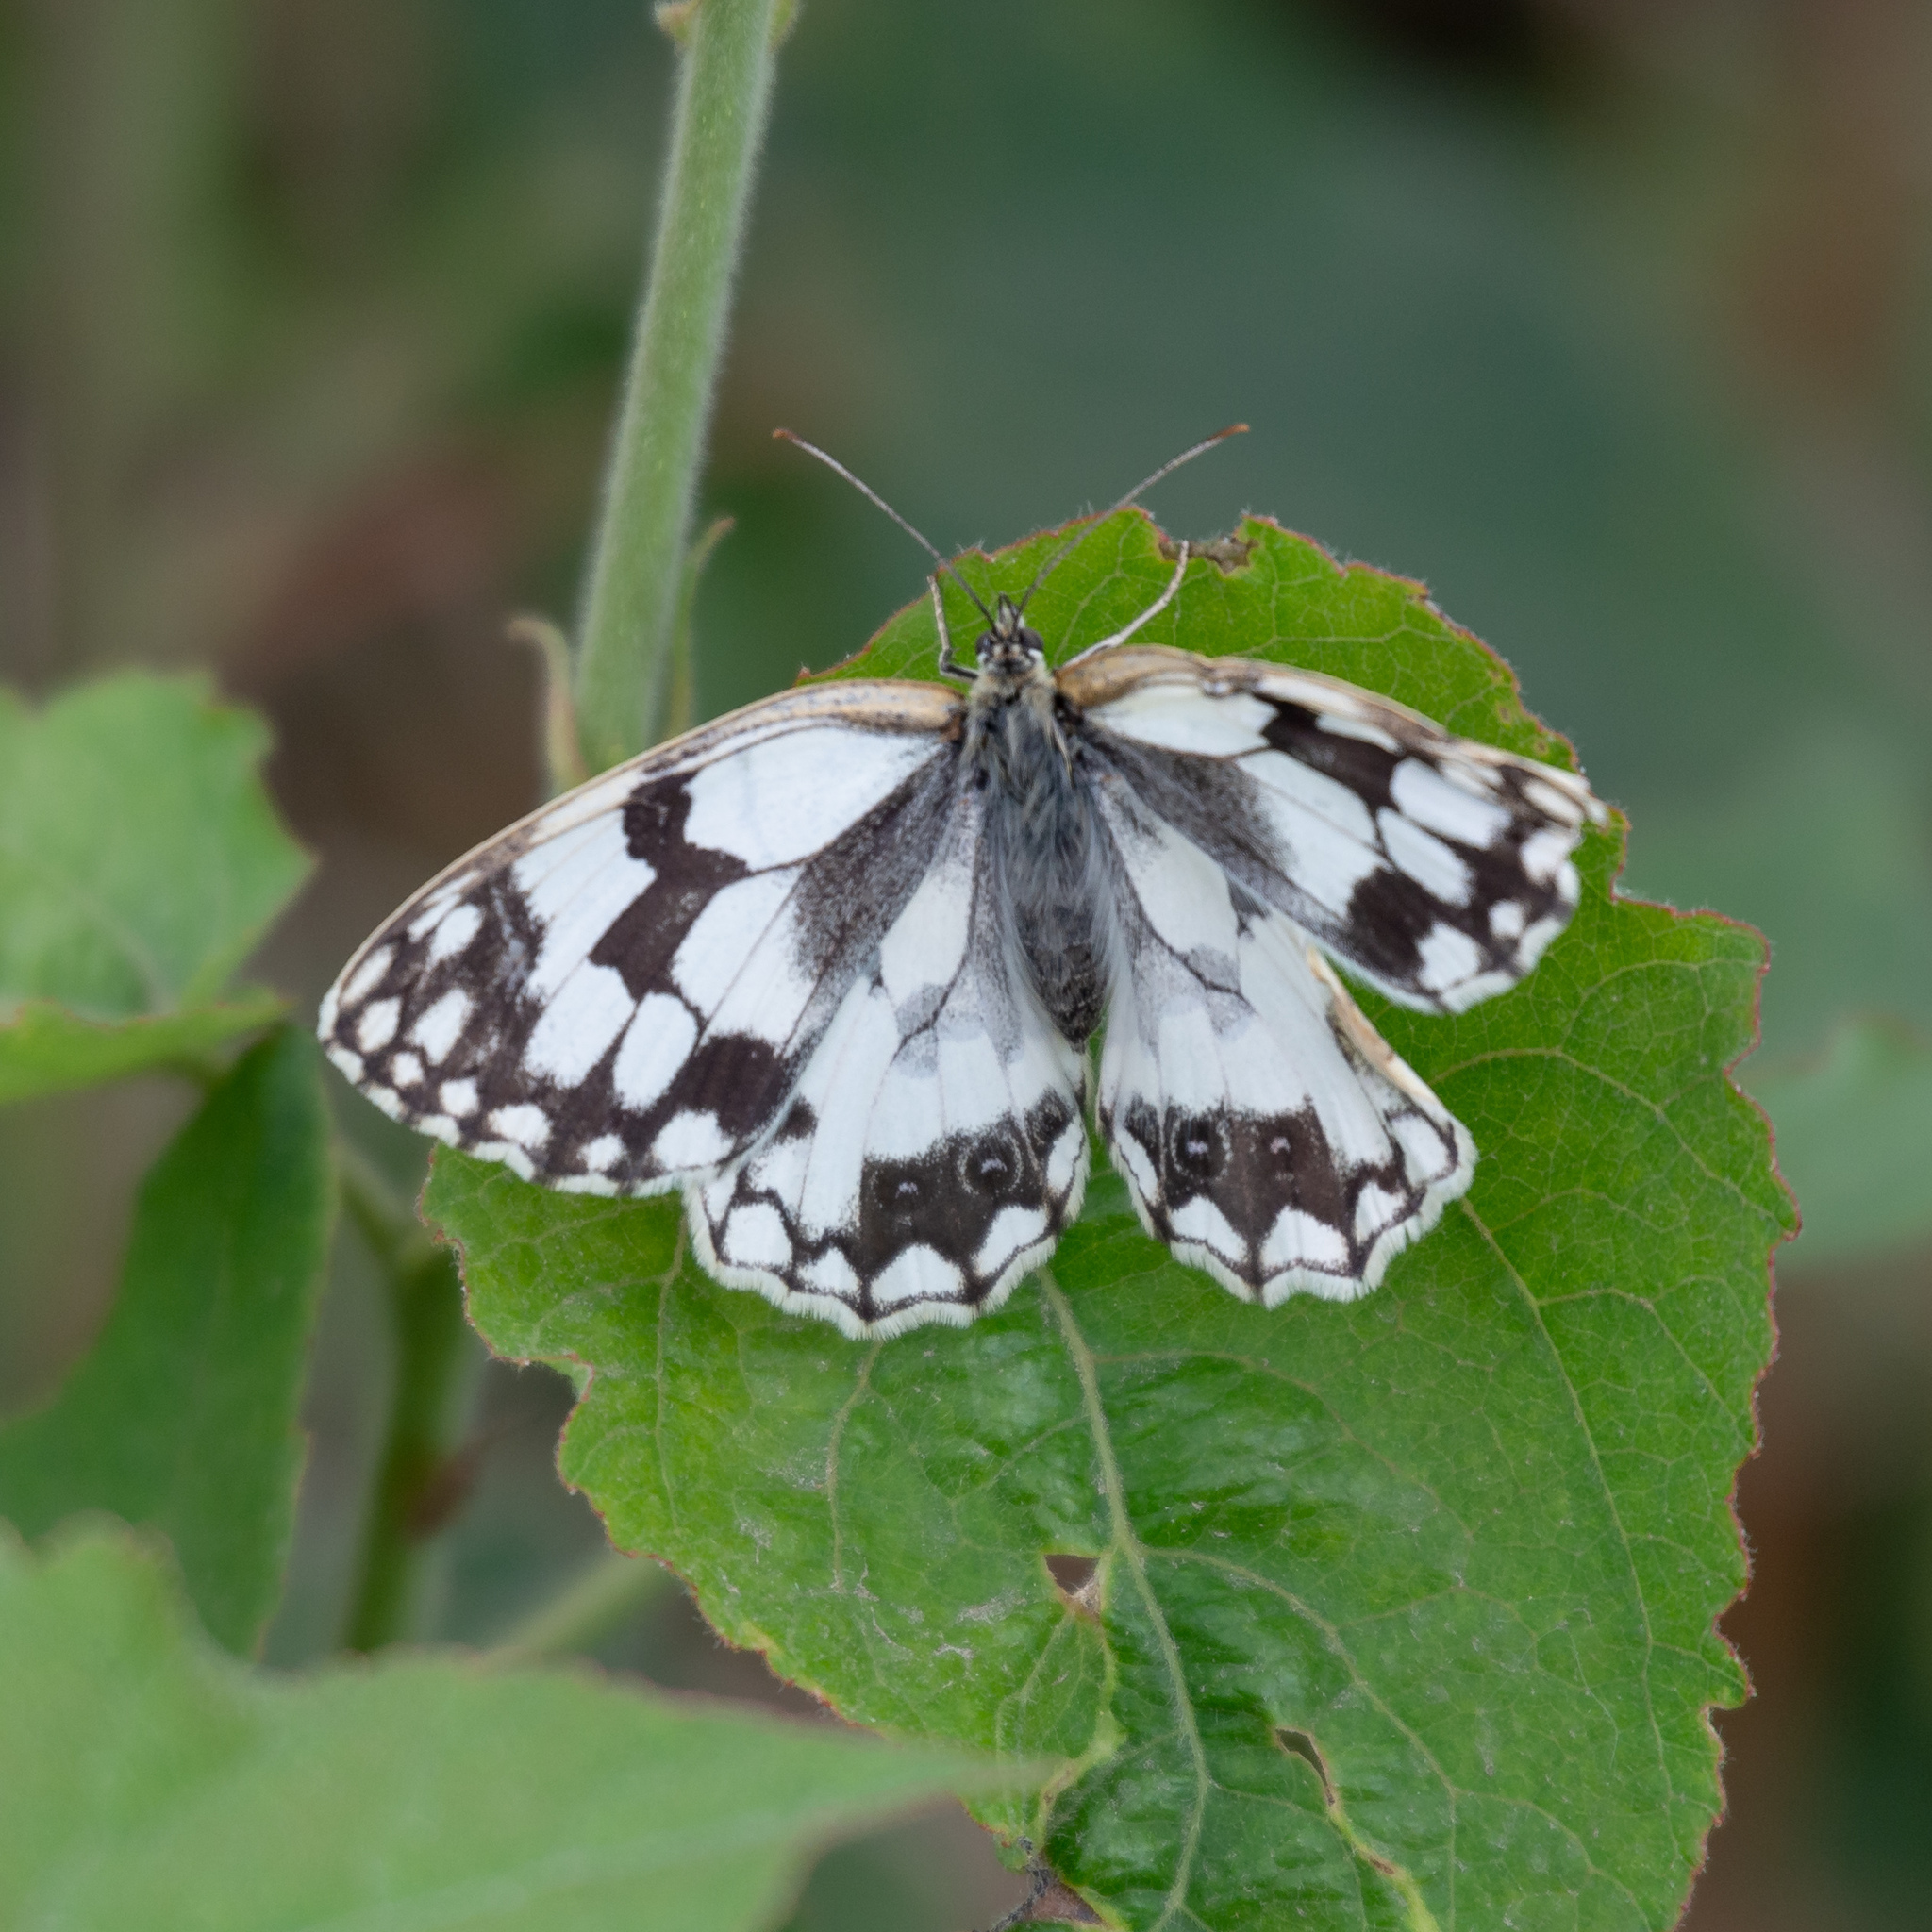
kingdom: Animalia
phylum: Arthropoda
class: Insecta
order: Lepidoptera
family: Nymphalidae
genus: Melanargia
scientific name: Melanargia lachesis
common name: Iberian marbled white
